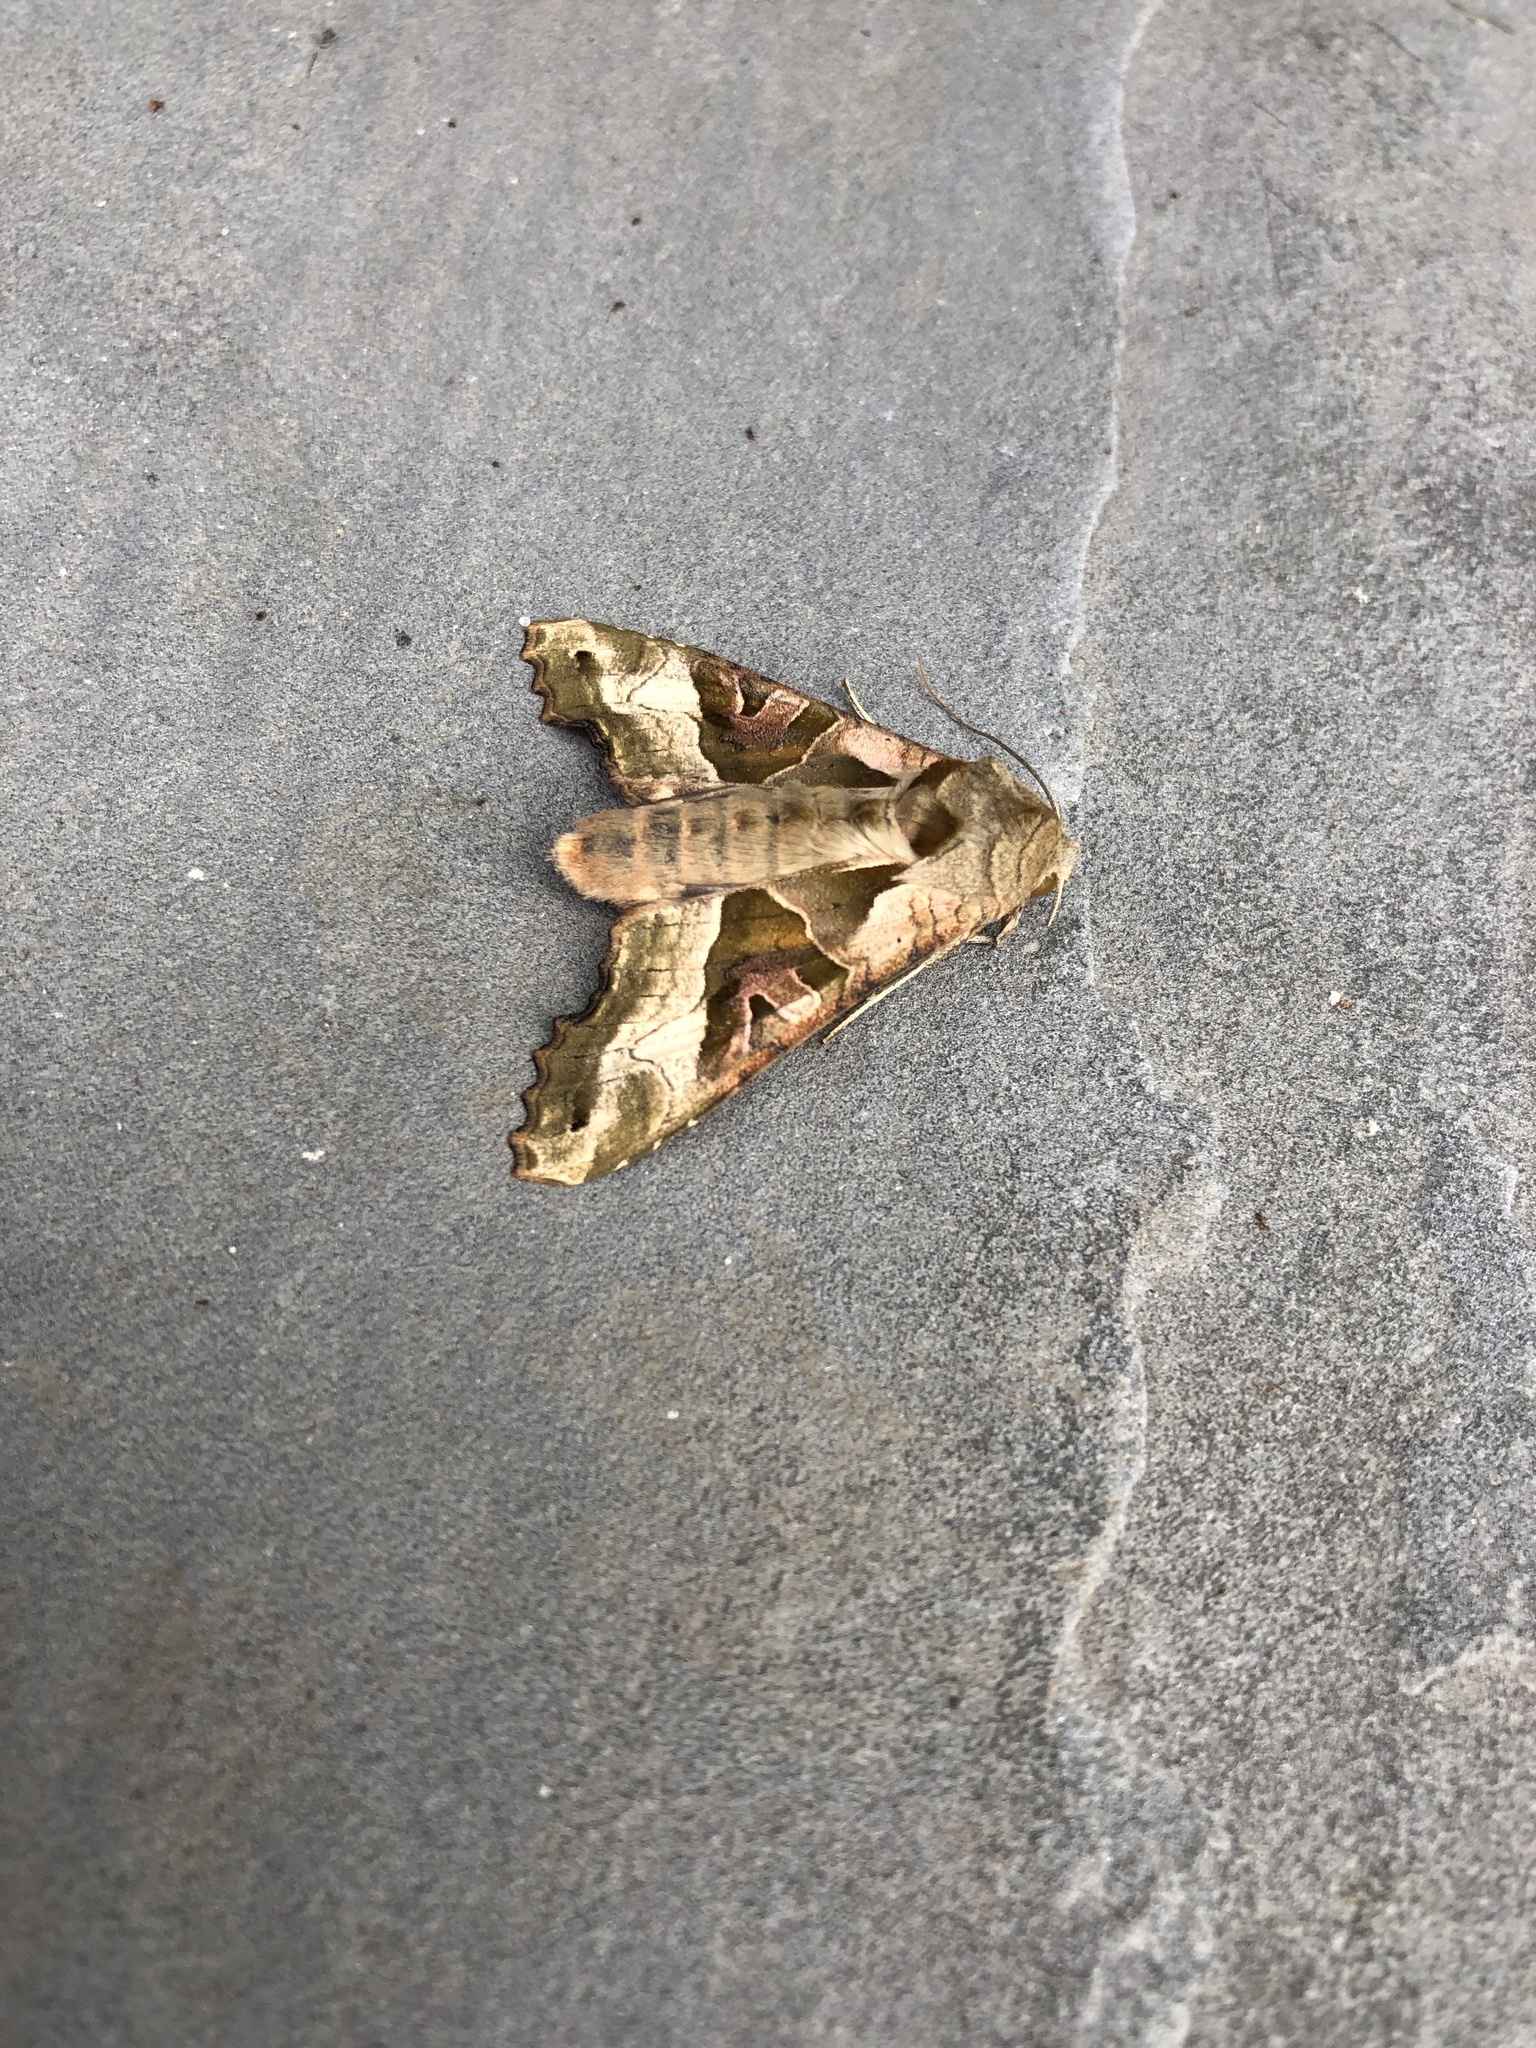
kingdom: Animalia
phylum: Arthropoda
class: Insecta
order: Lepidoptera
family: Noctuidae
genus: Phlogophora
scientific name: Phlogophora meticulosa
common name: Angle shades
